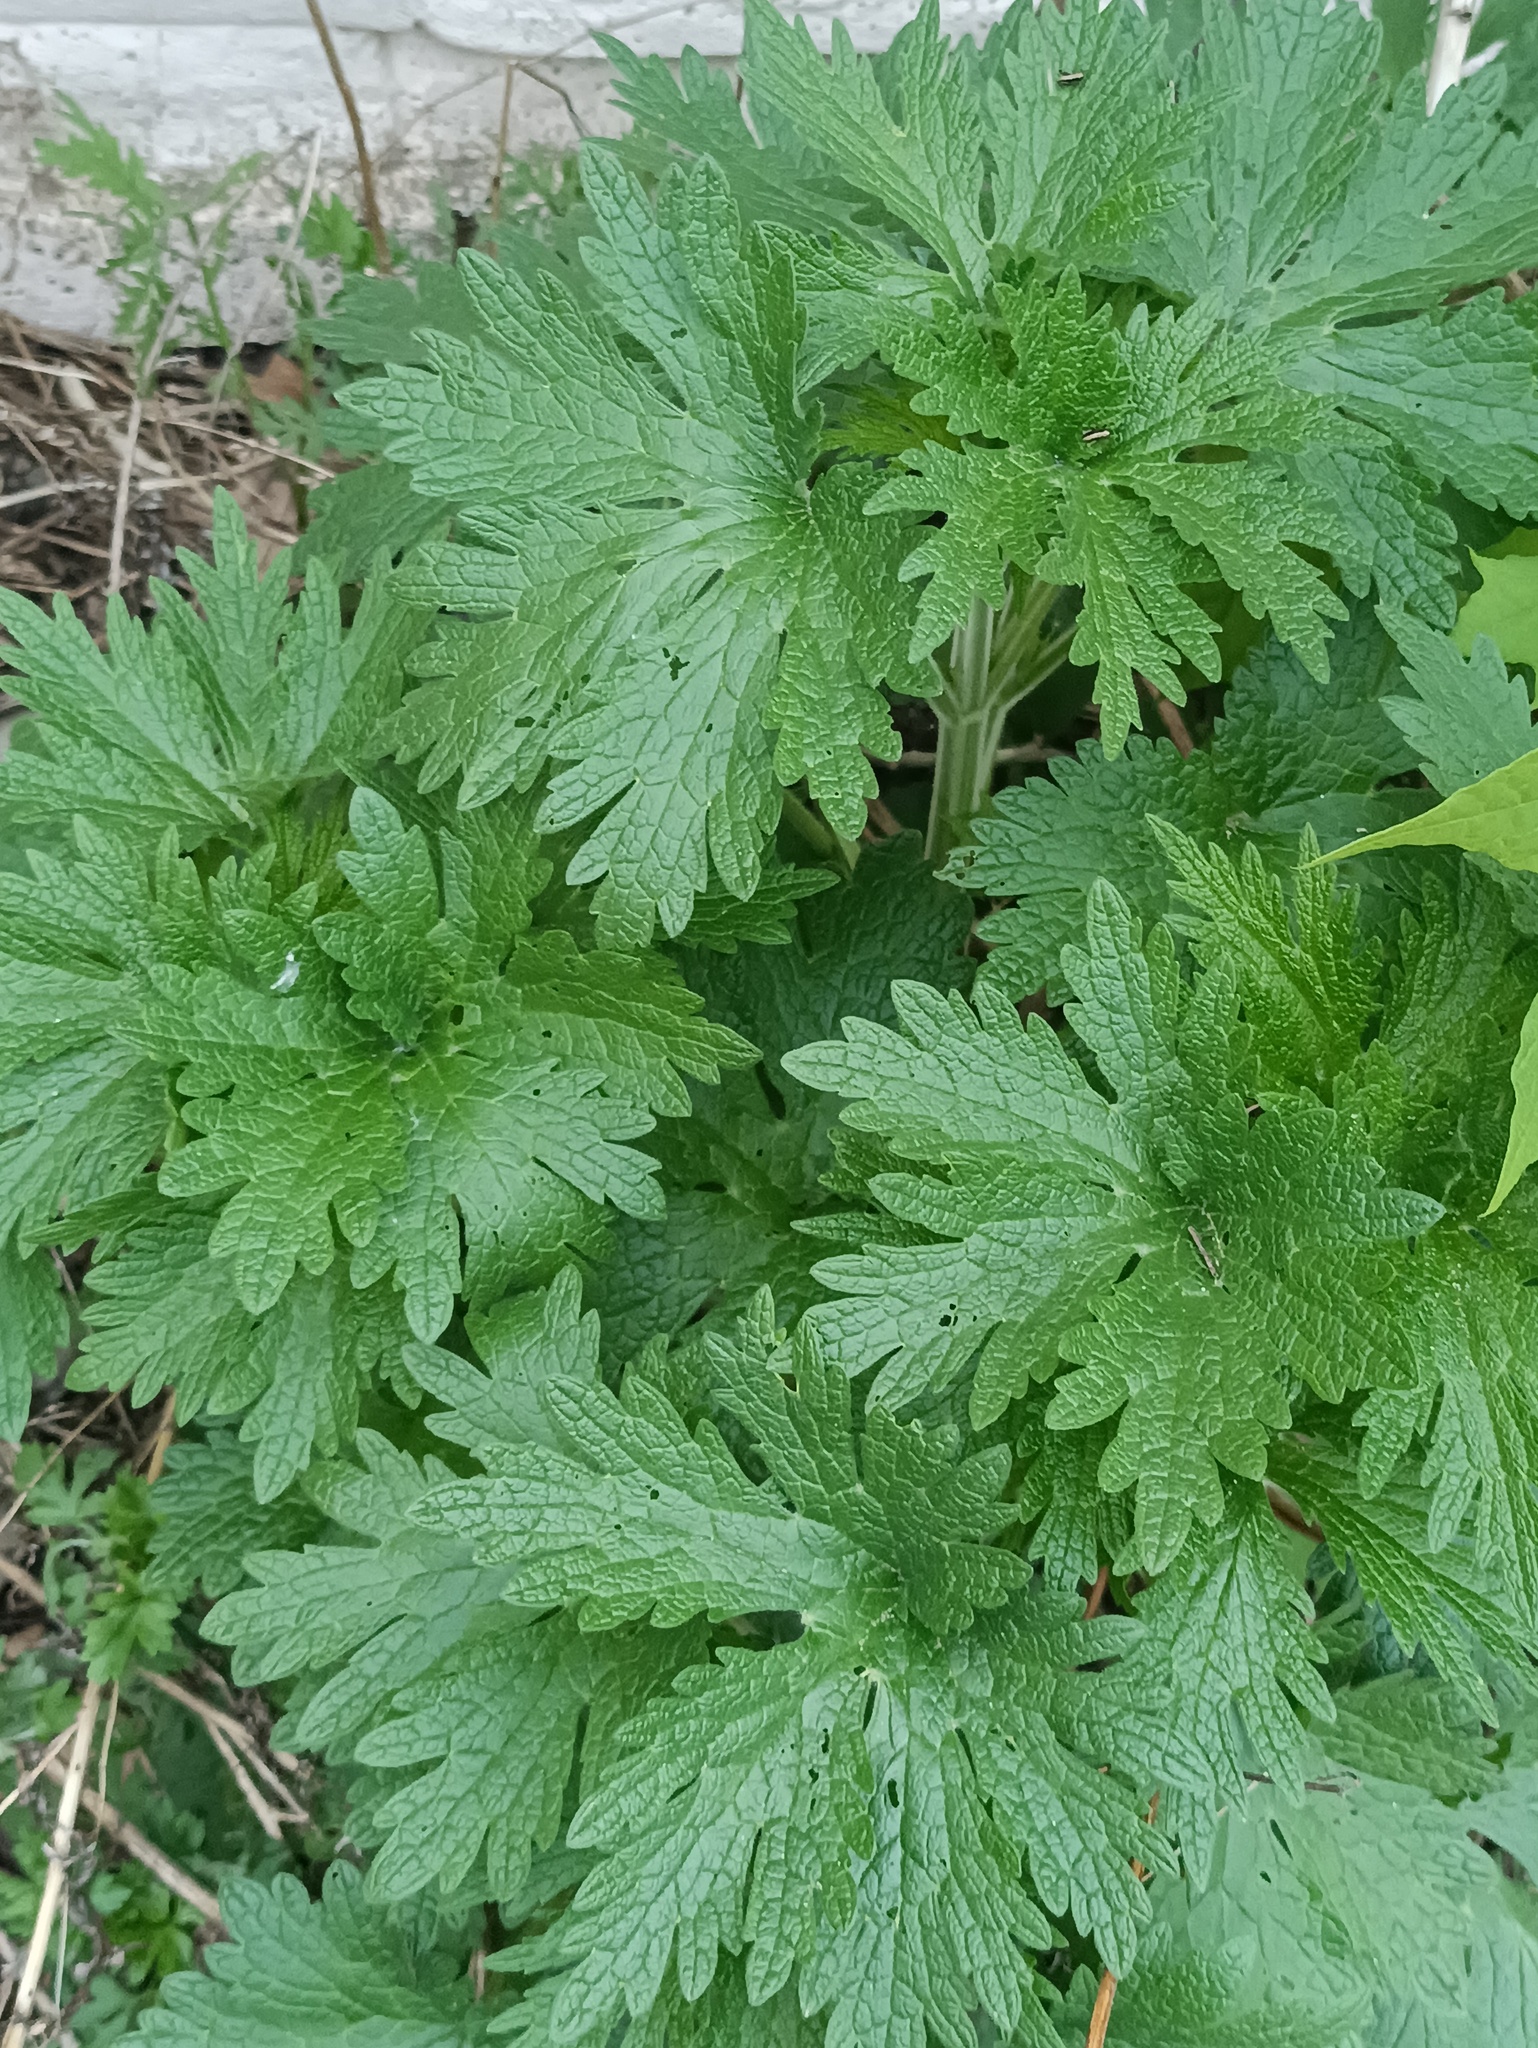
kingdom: Plantae
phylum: Tracheophyta
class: Magnoliopsida
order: Lamiales
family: Lamiaceae
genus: Leonurus
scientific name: Leonurus quinquelobatus
